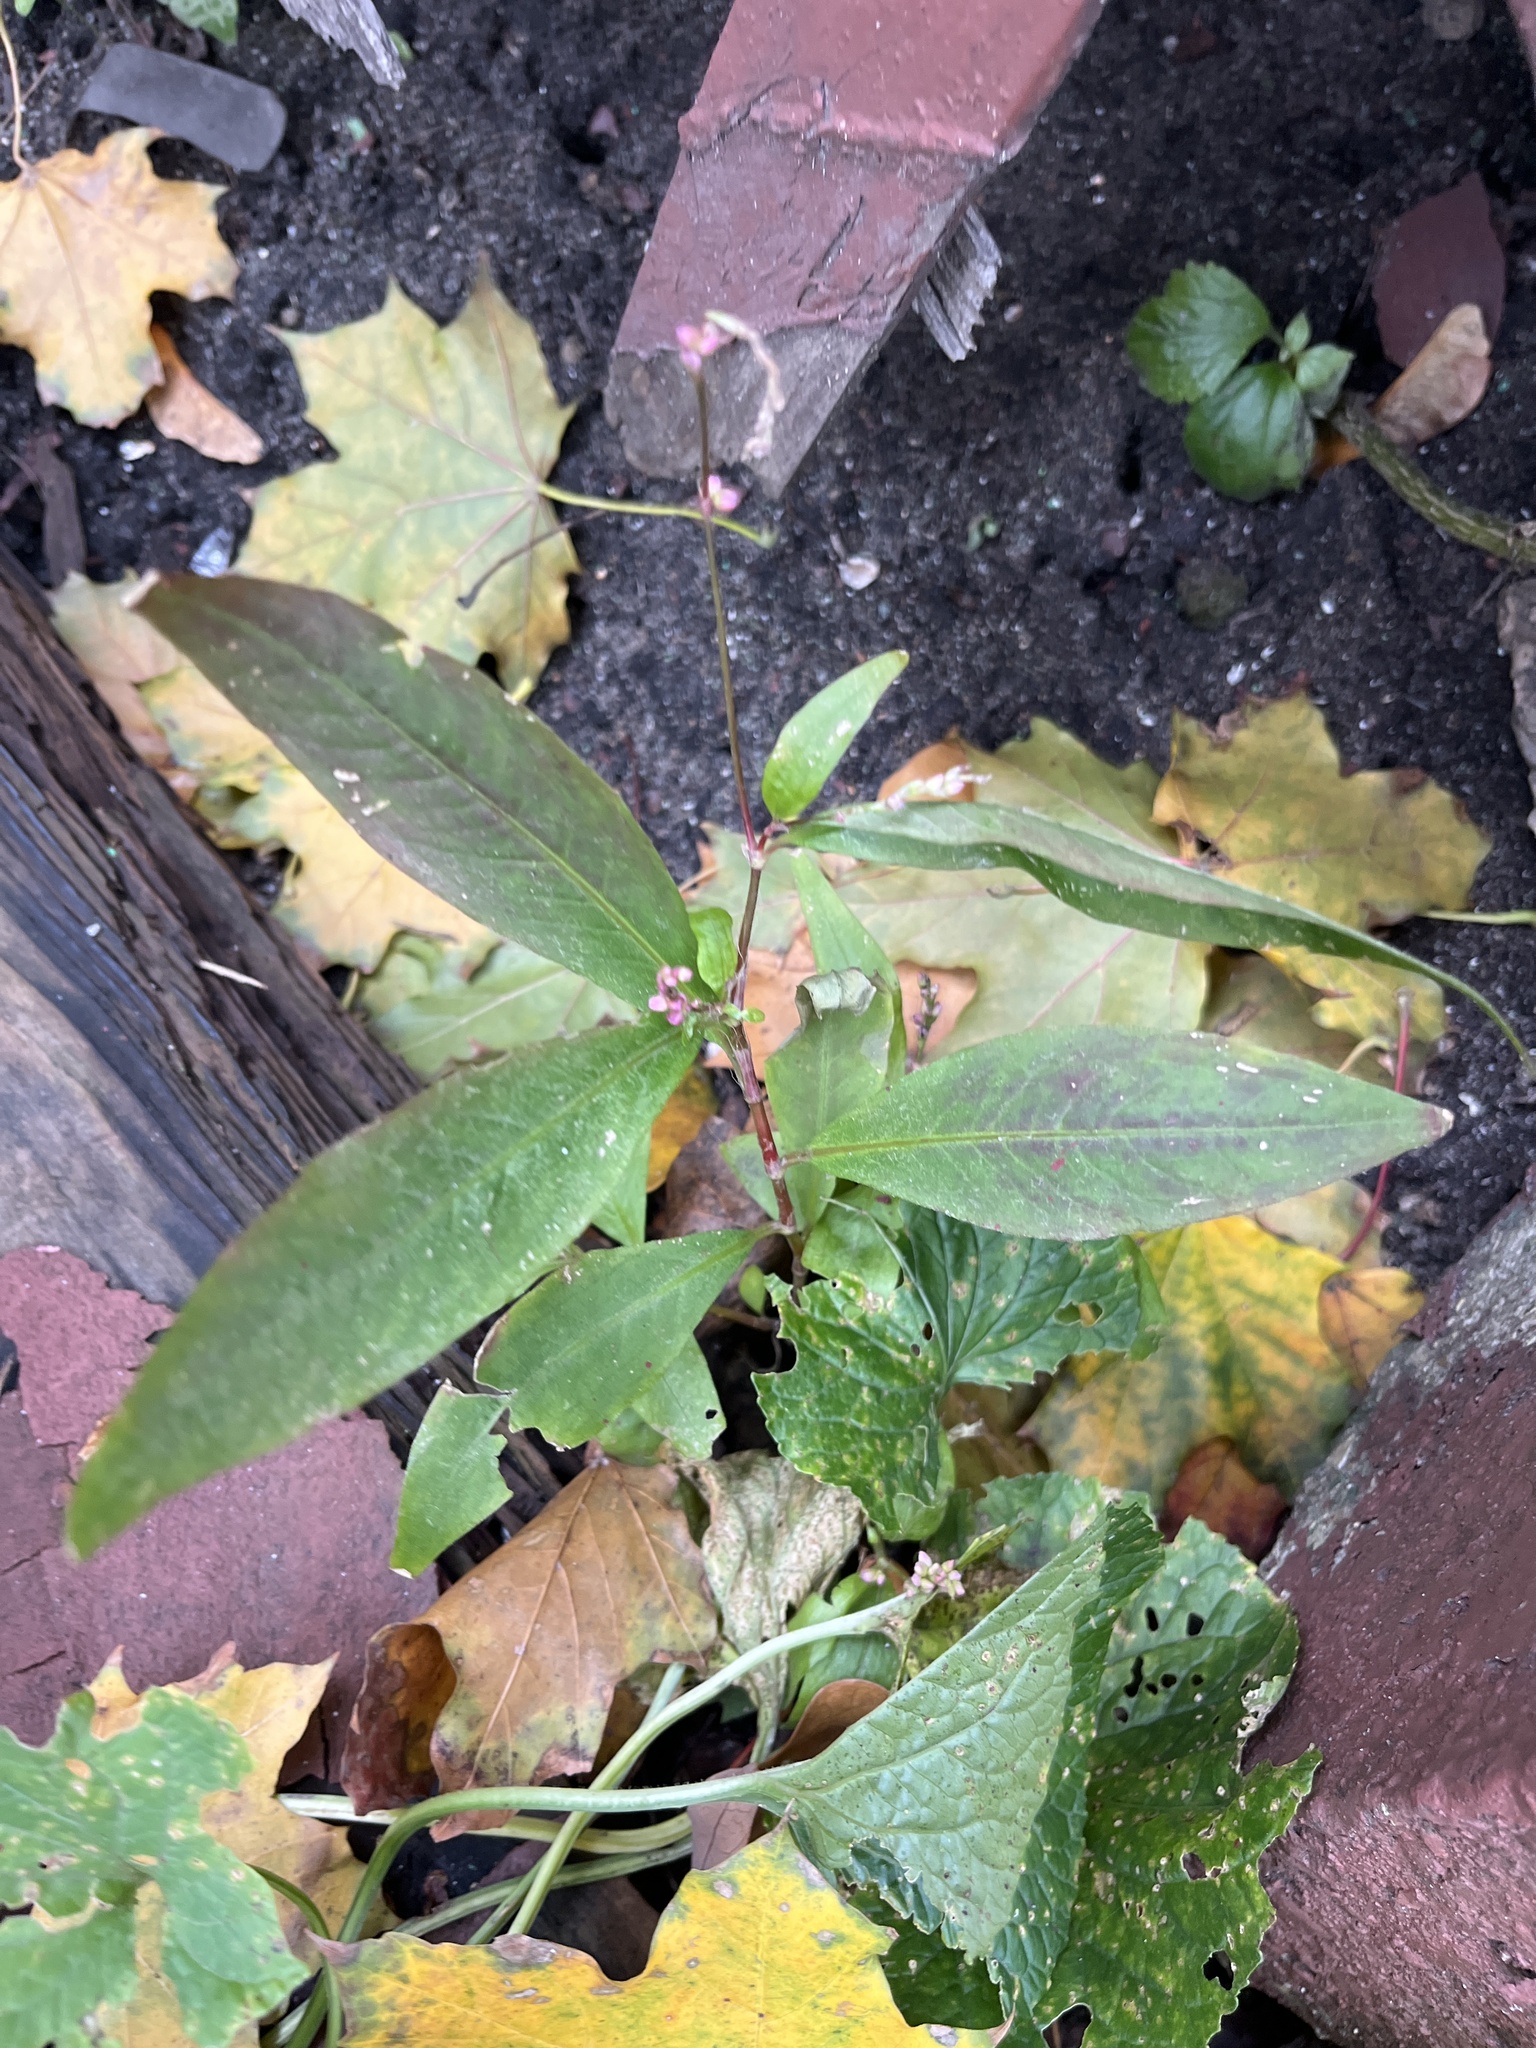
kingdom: Plantae
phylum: Tracheophyta
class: Magnoliopsida
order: Caryophyllales
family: Polygonaceae
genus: Persicaria
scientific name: Persicaria longiseta
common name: Bristly lady's-thumb
